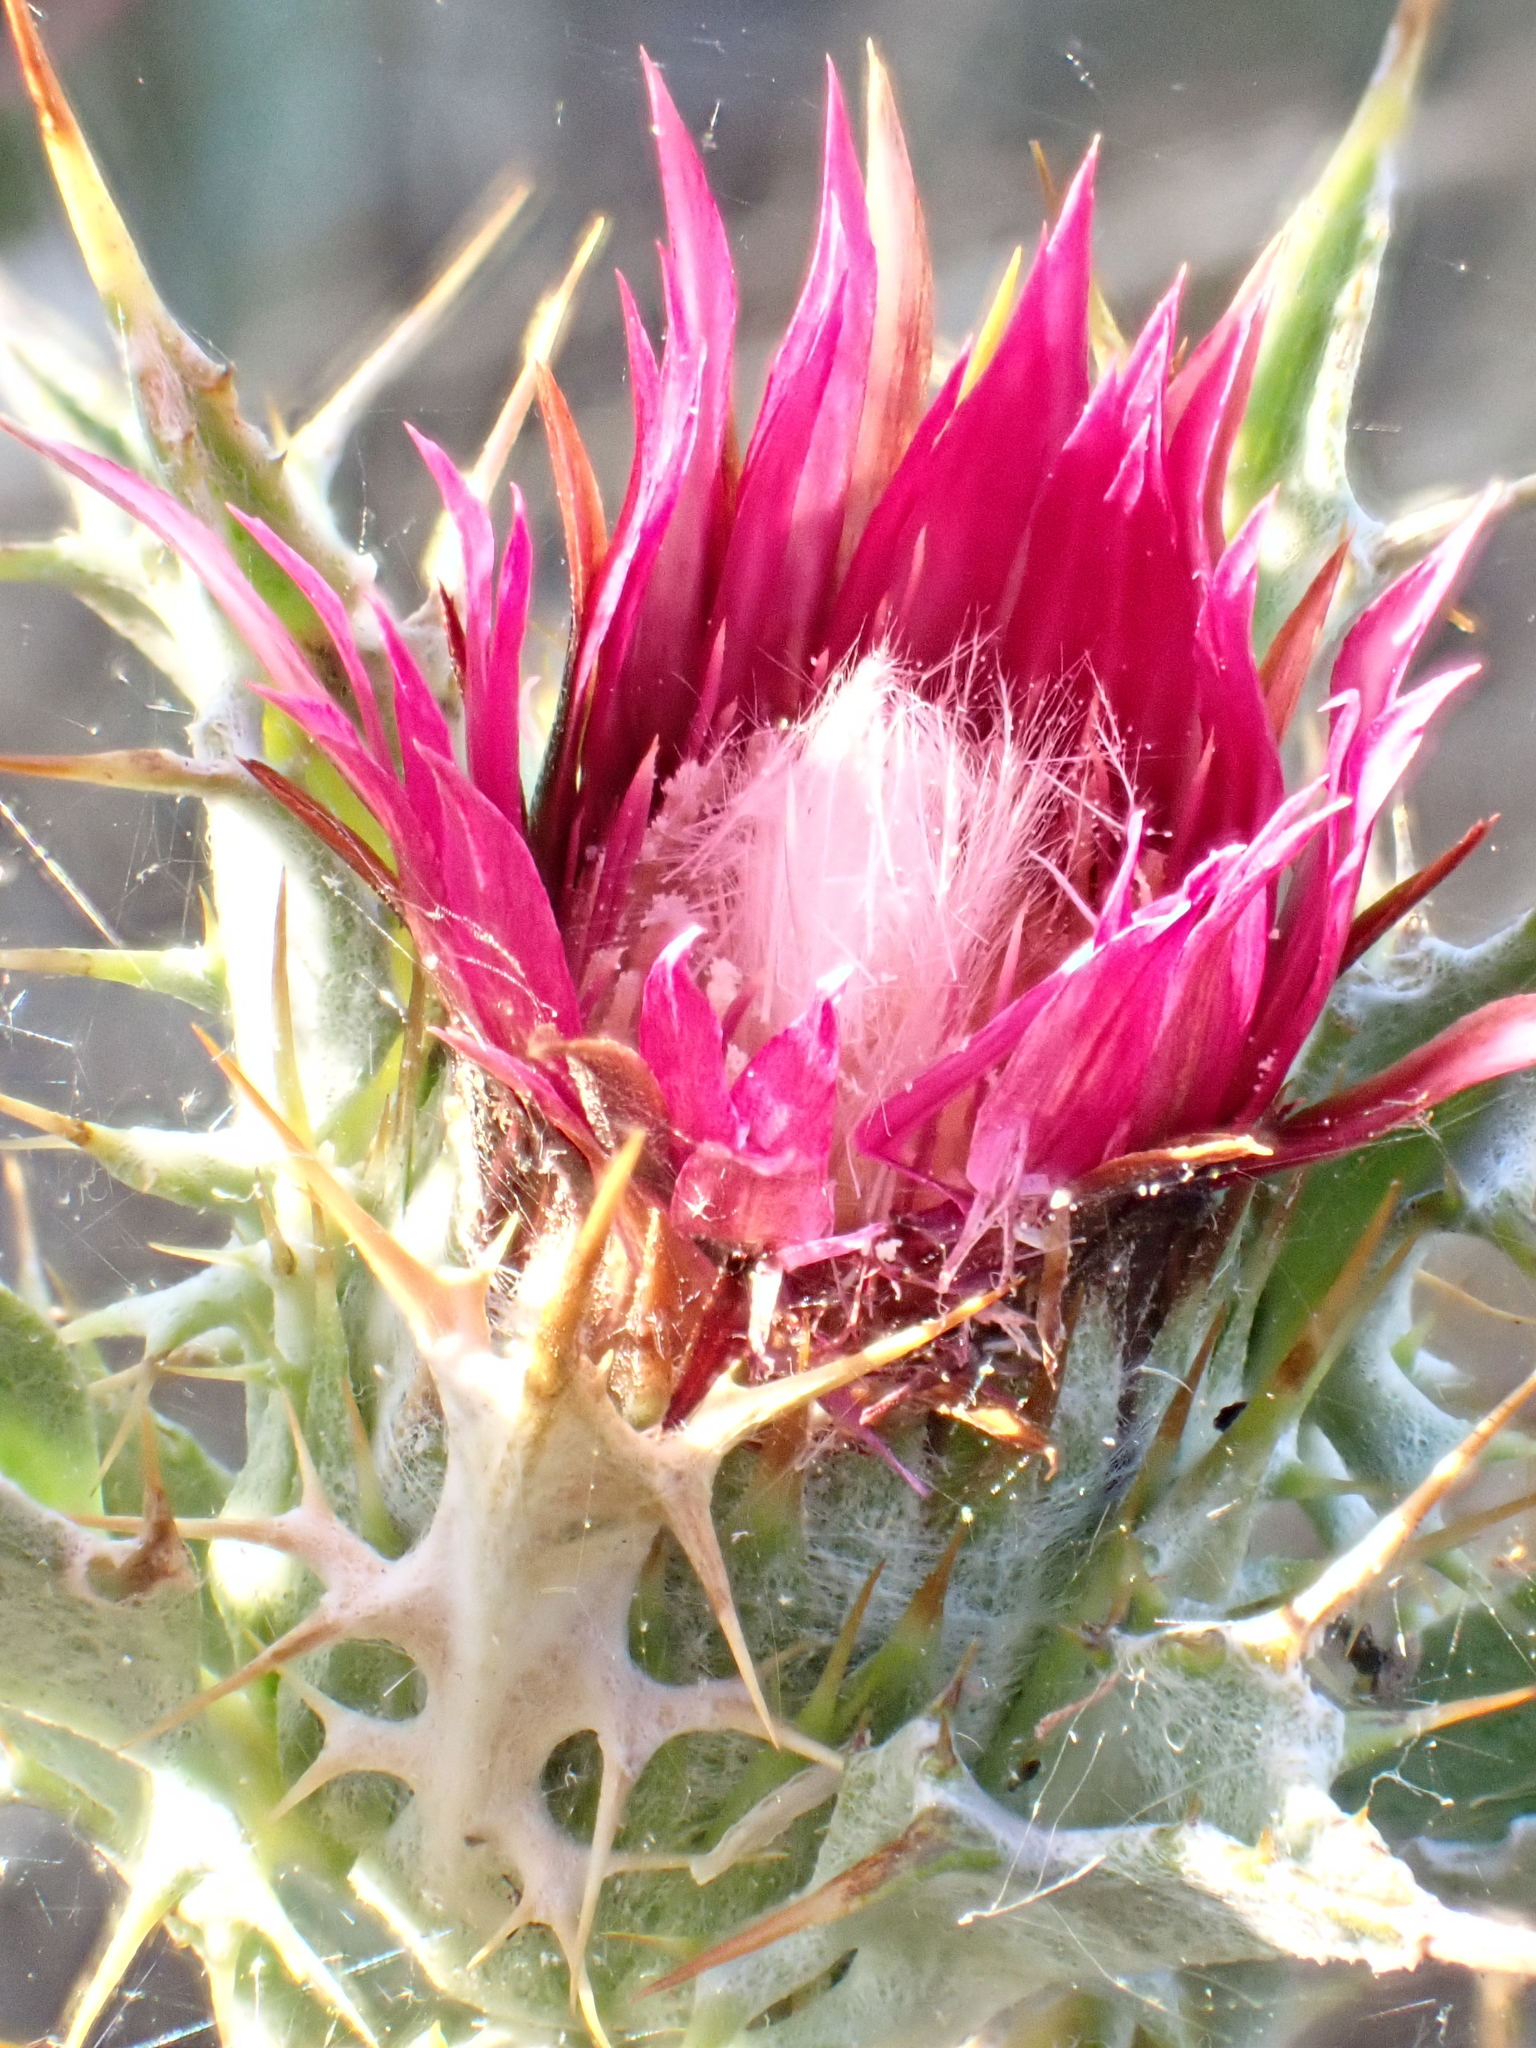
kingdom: Plantae
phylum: Tracheophyta
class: Magnoliopsida
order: Asterales
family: Asteraceae
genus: Carlina
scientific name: Carlina lanata
